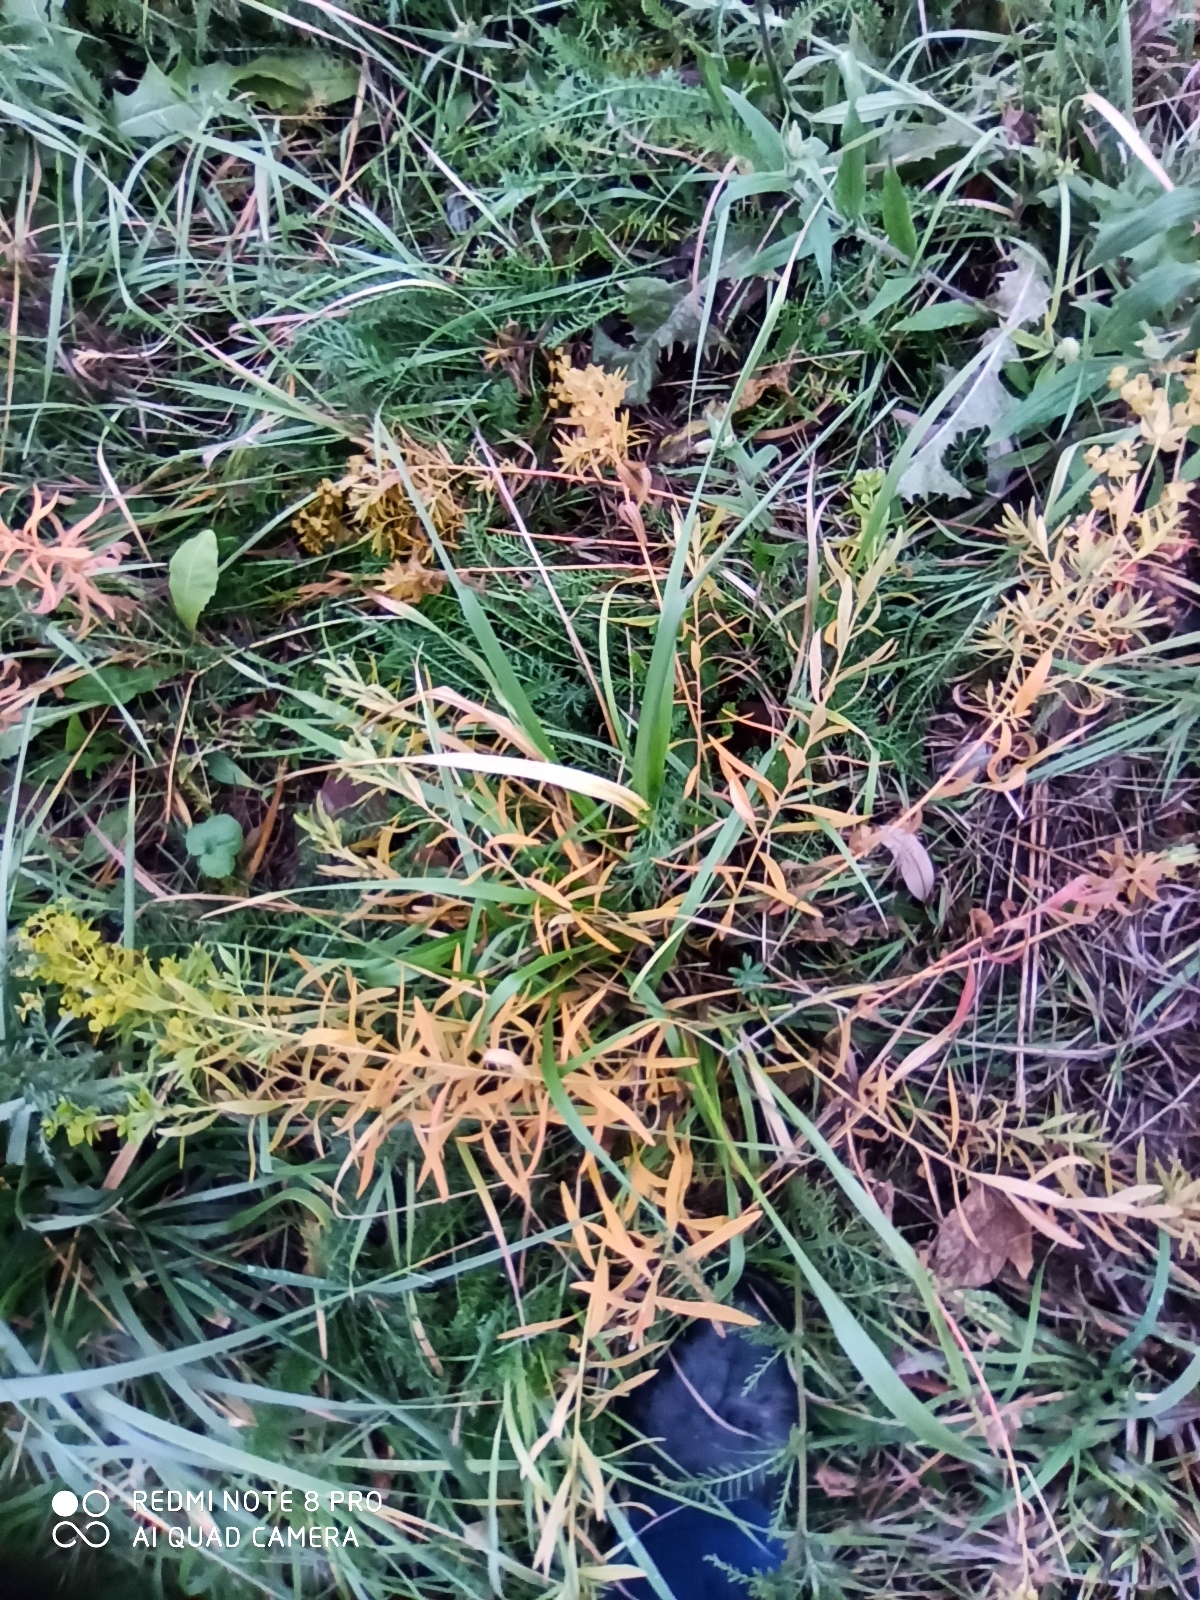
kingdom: Plantae
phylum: Tracheophyta
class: Magnoliopsida
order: Malpighiales
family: Euphorbiaceae
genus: Euphorbia
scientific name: Euphorbia virgata
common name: Leafy spurge
